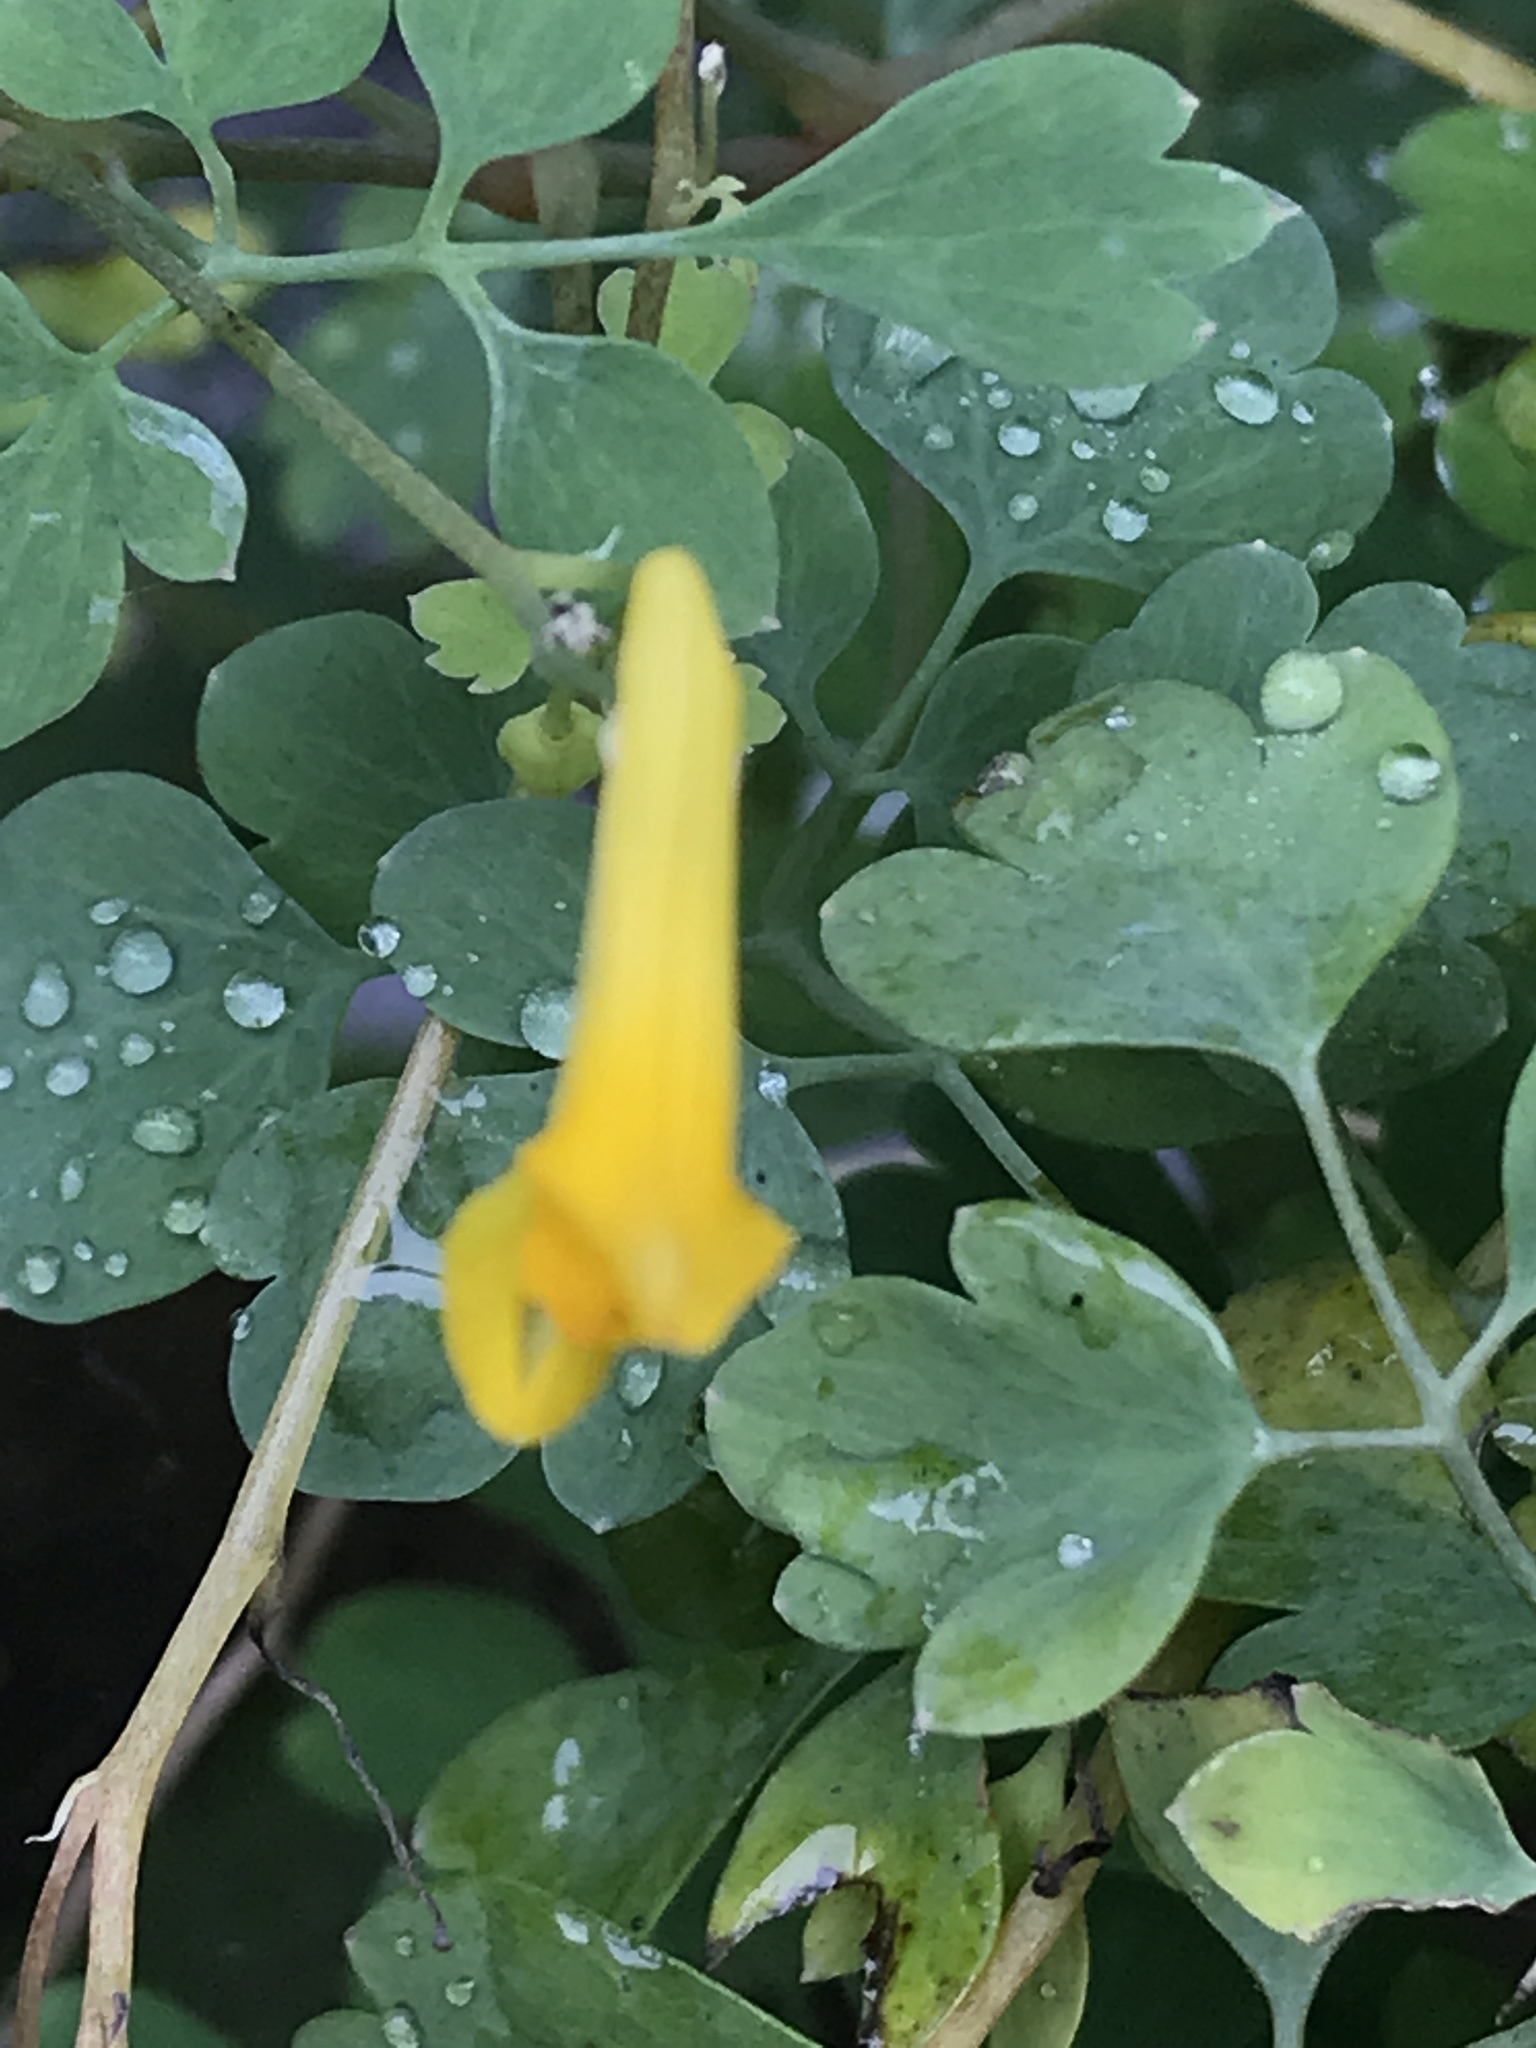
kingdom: Plantae
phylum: Tracheophyta
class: Magnoliopsida
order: Ranunculales
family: Papaveraceae
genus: Pseudofumaria
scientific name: Pseudofumaria lutea
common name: Yellow corydalis
